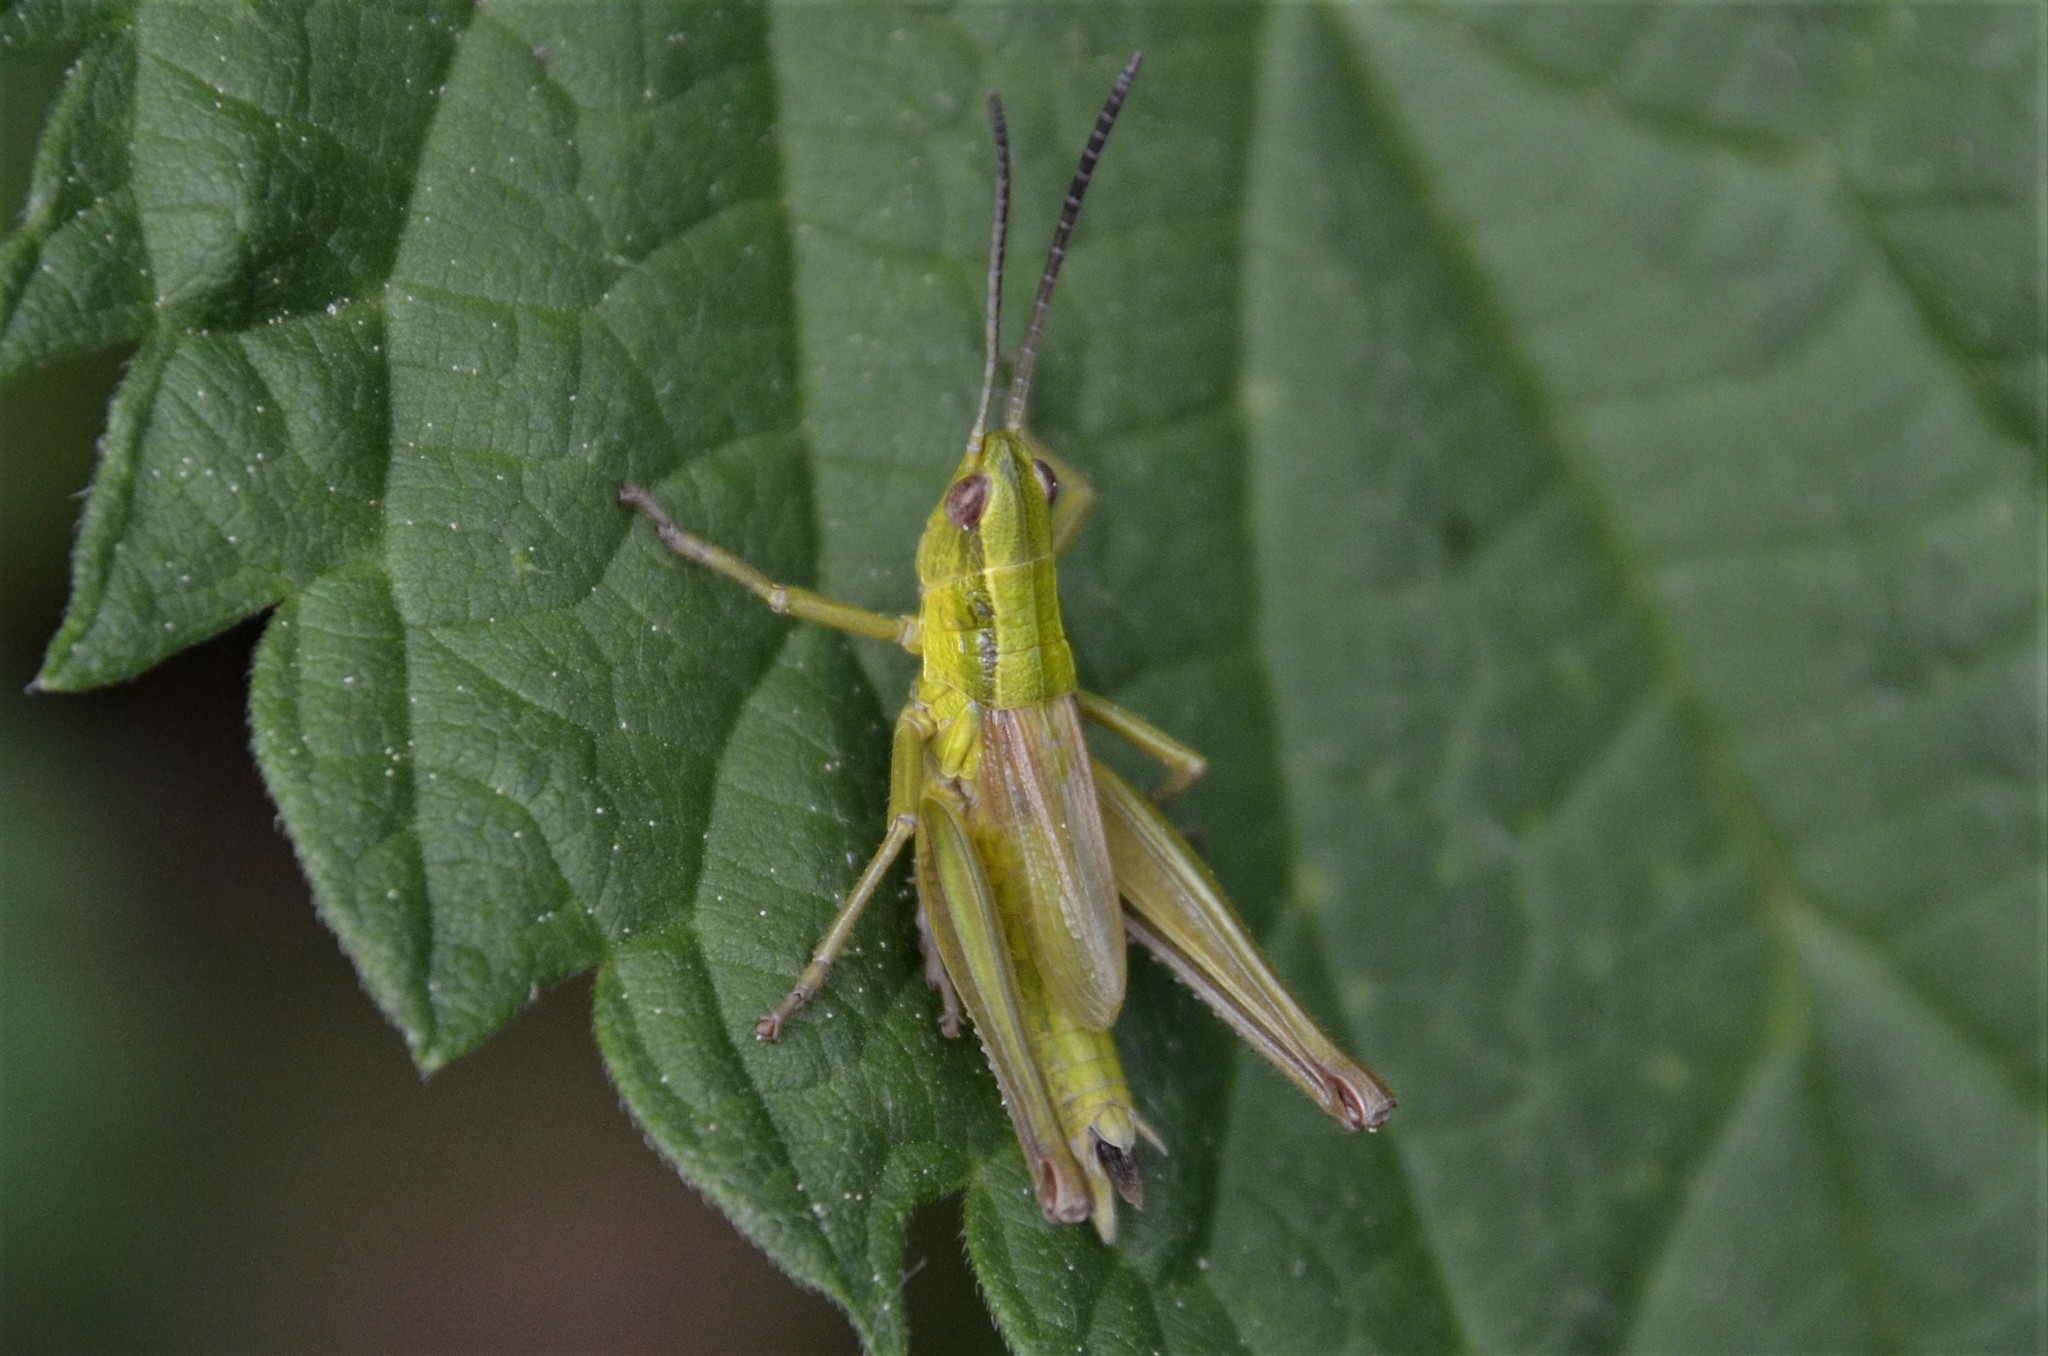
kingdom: Animalia
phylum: Arthropoda
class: Insecta
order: Orthoptera
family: Acrididae
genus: Euthystira
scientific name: Euthystira brachyptera
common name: Small gold grasshopper
